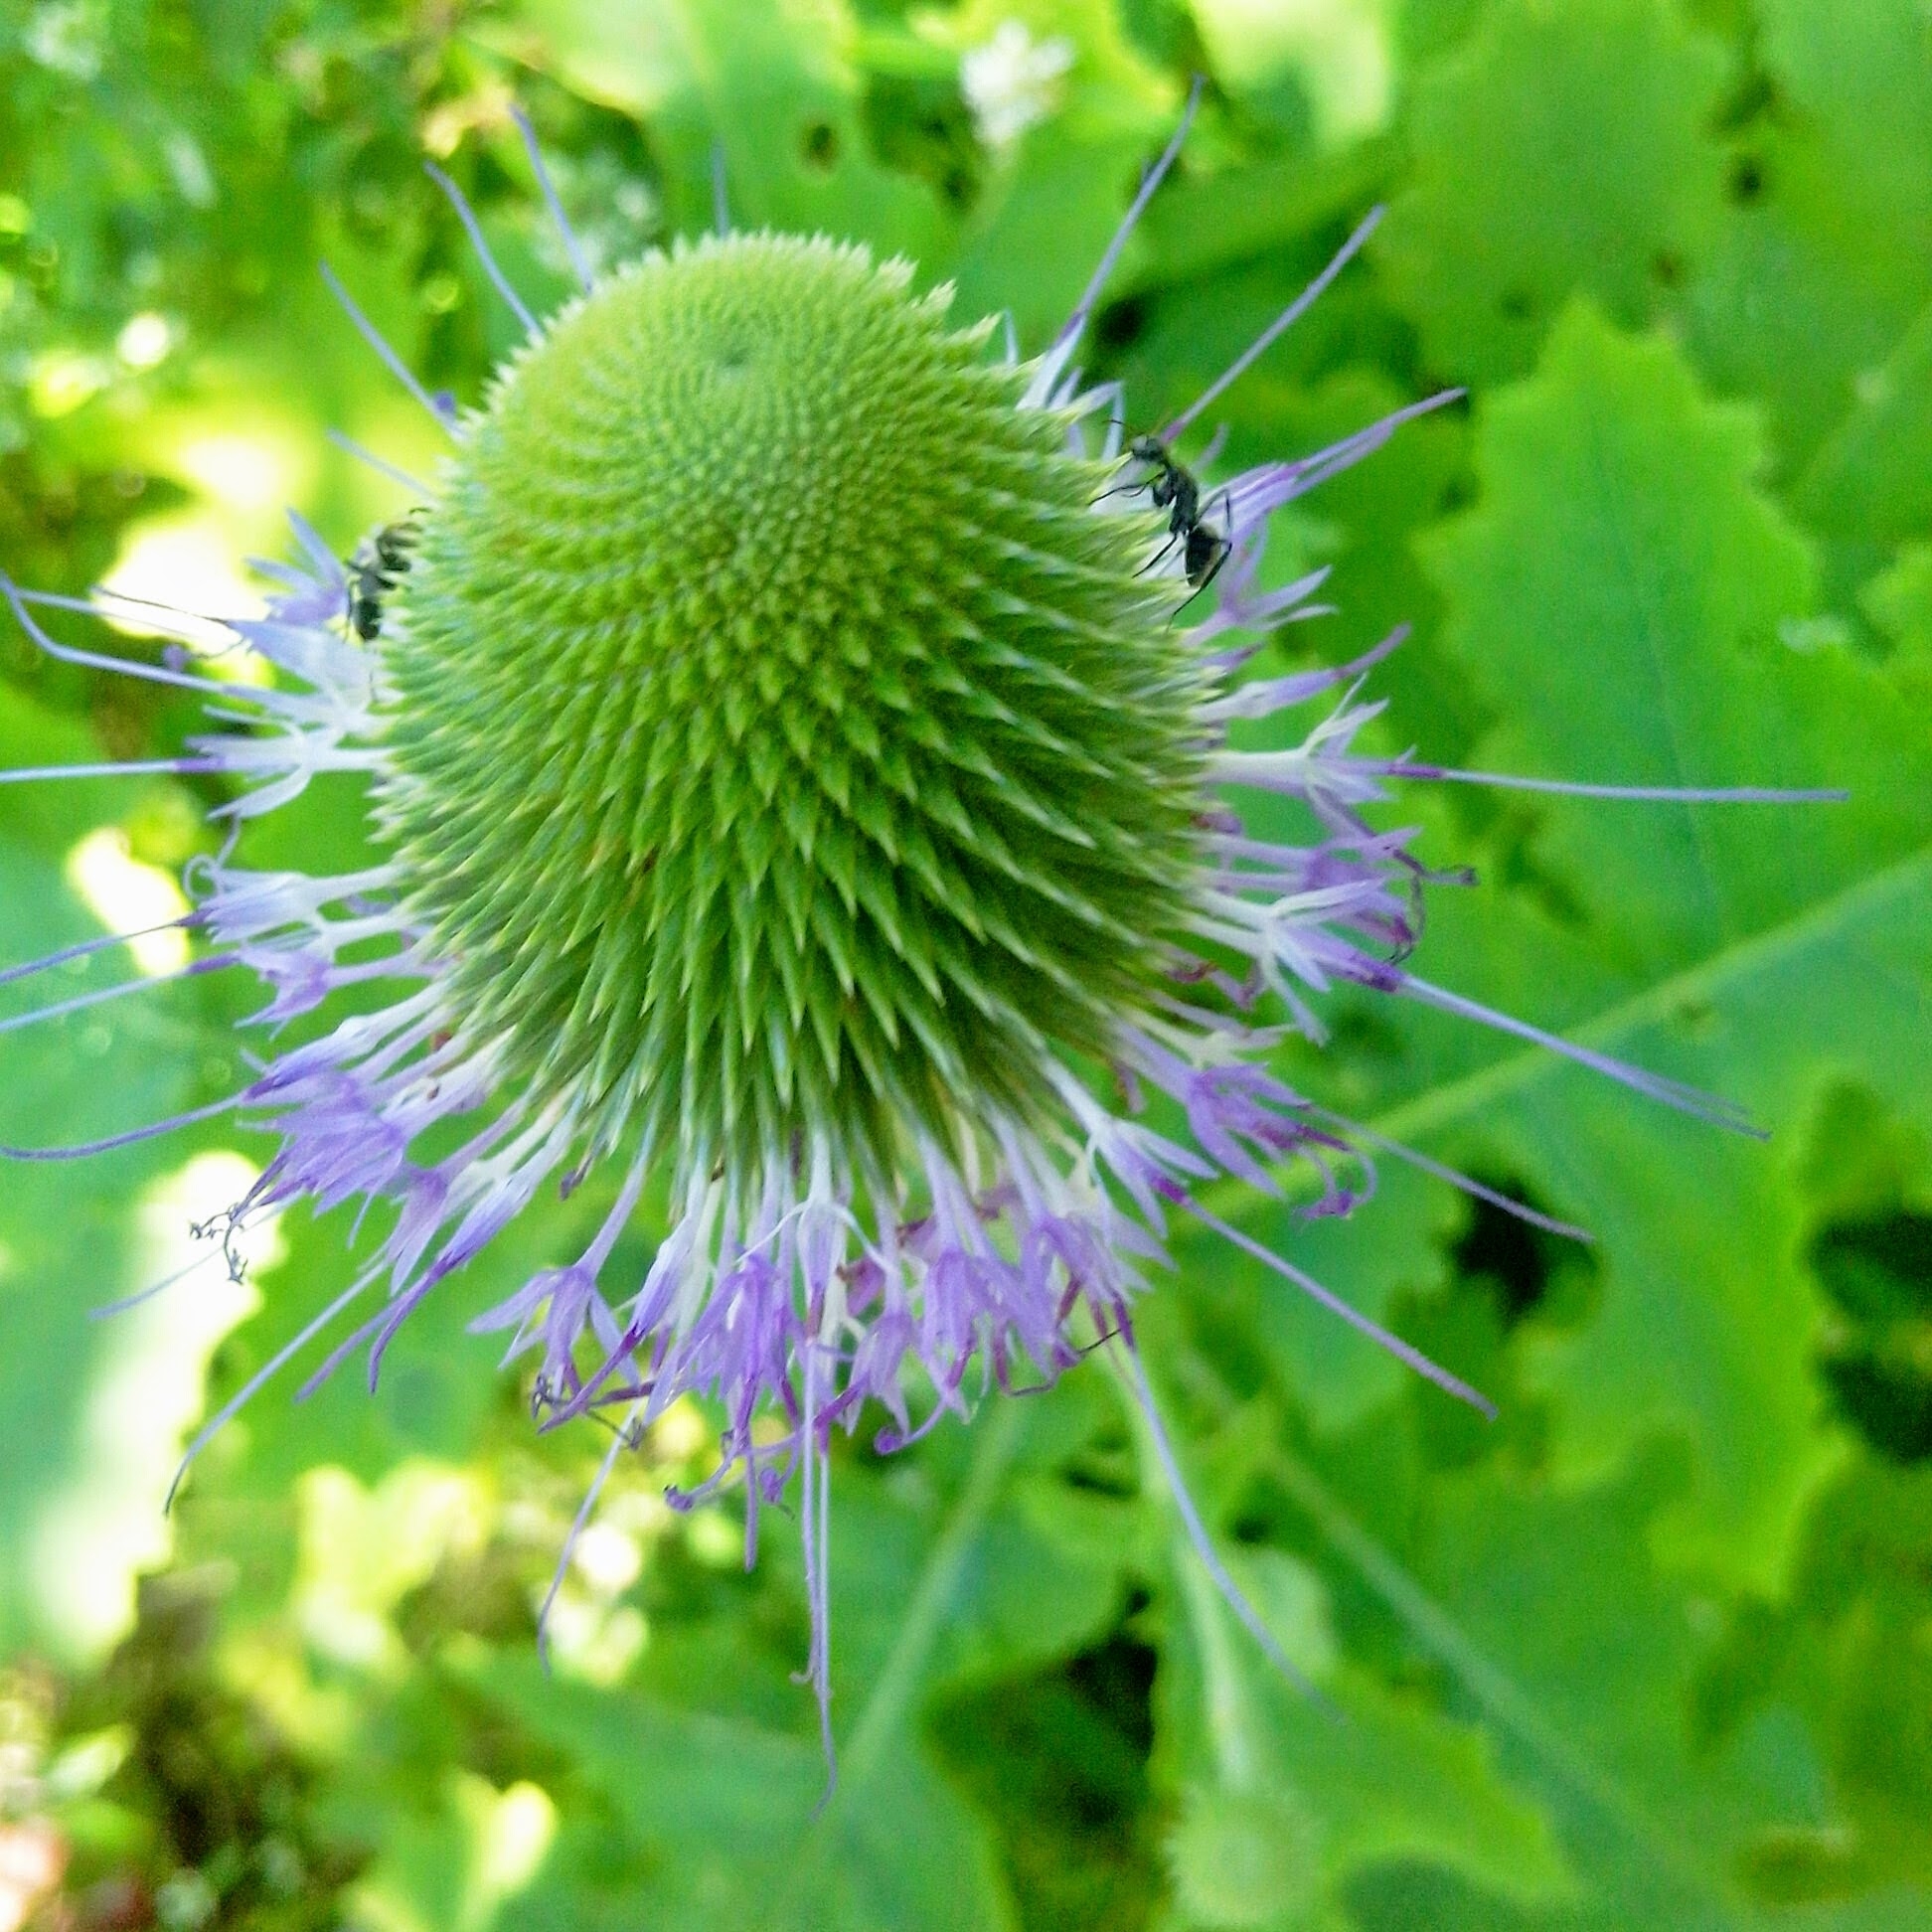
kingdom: Plantae
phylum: Tracheophyta
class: Magnoliopsida
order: Asterales
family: Asteraceae
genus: Chresta
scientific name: Chresta pacourinoides
